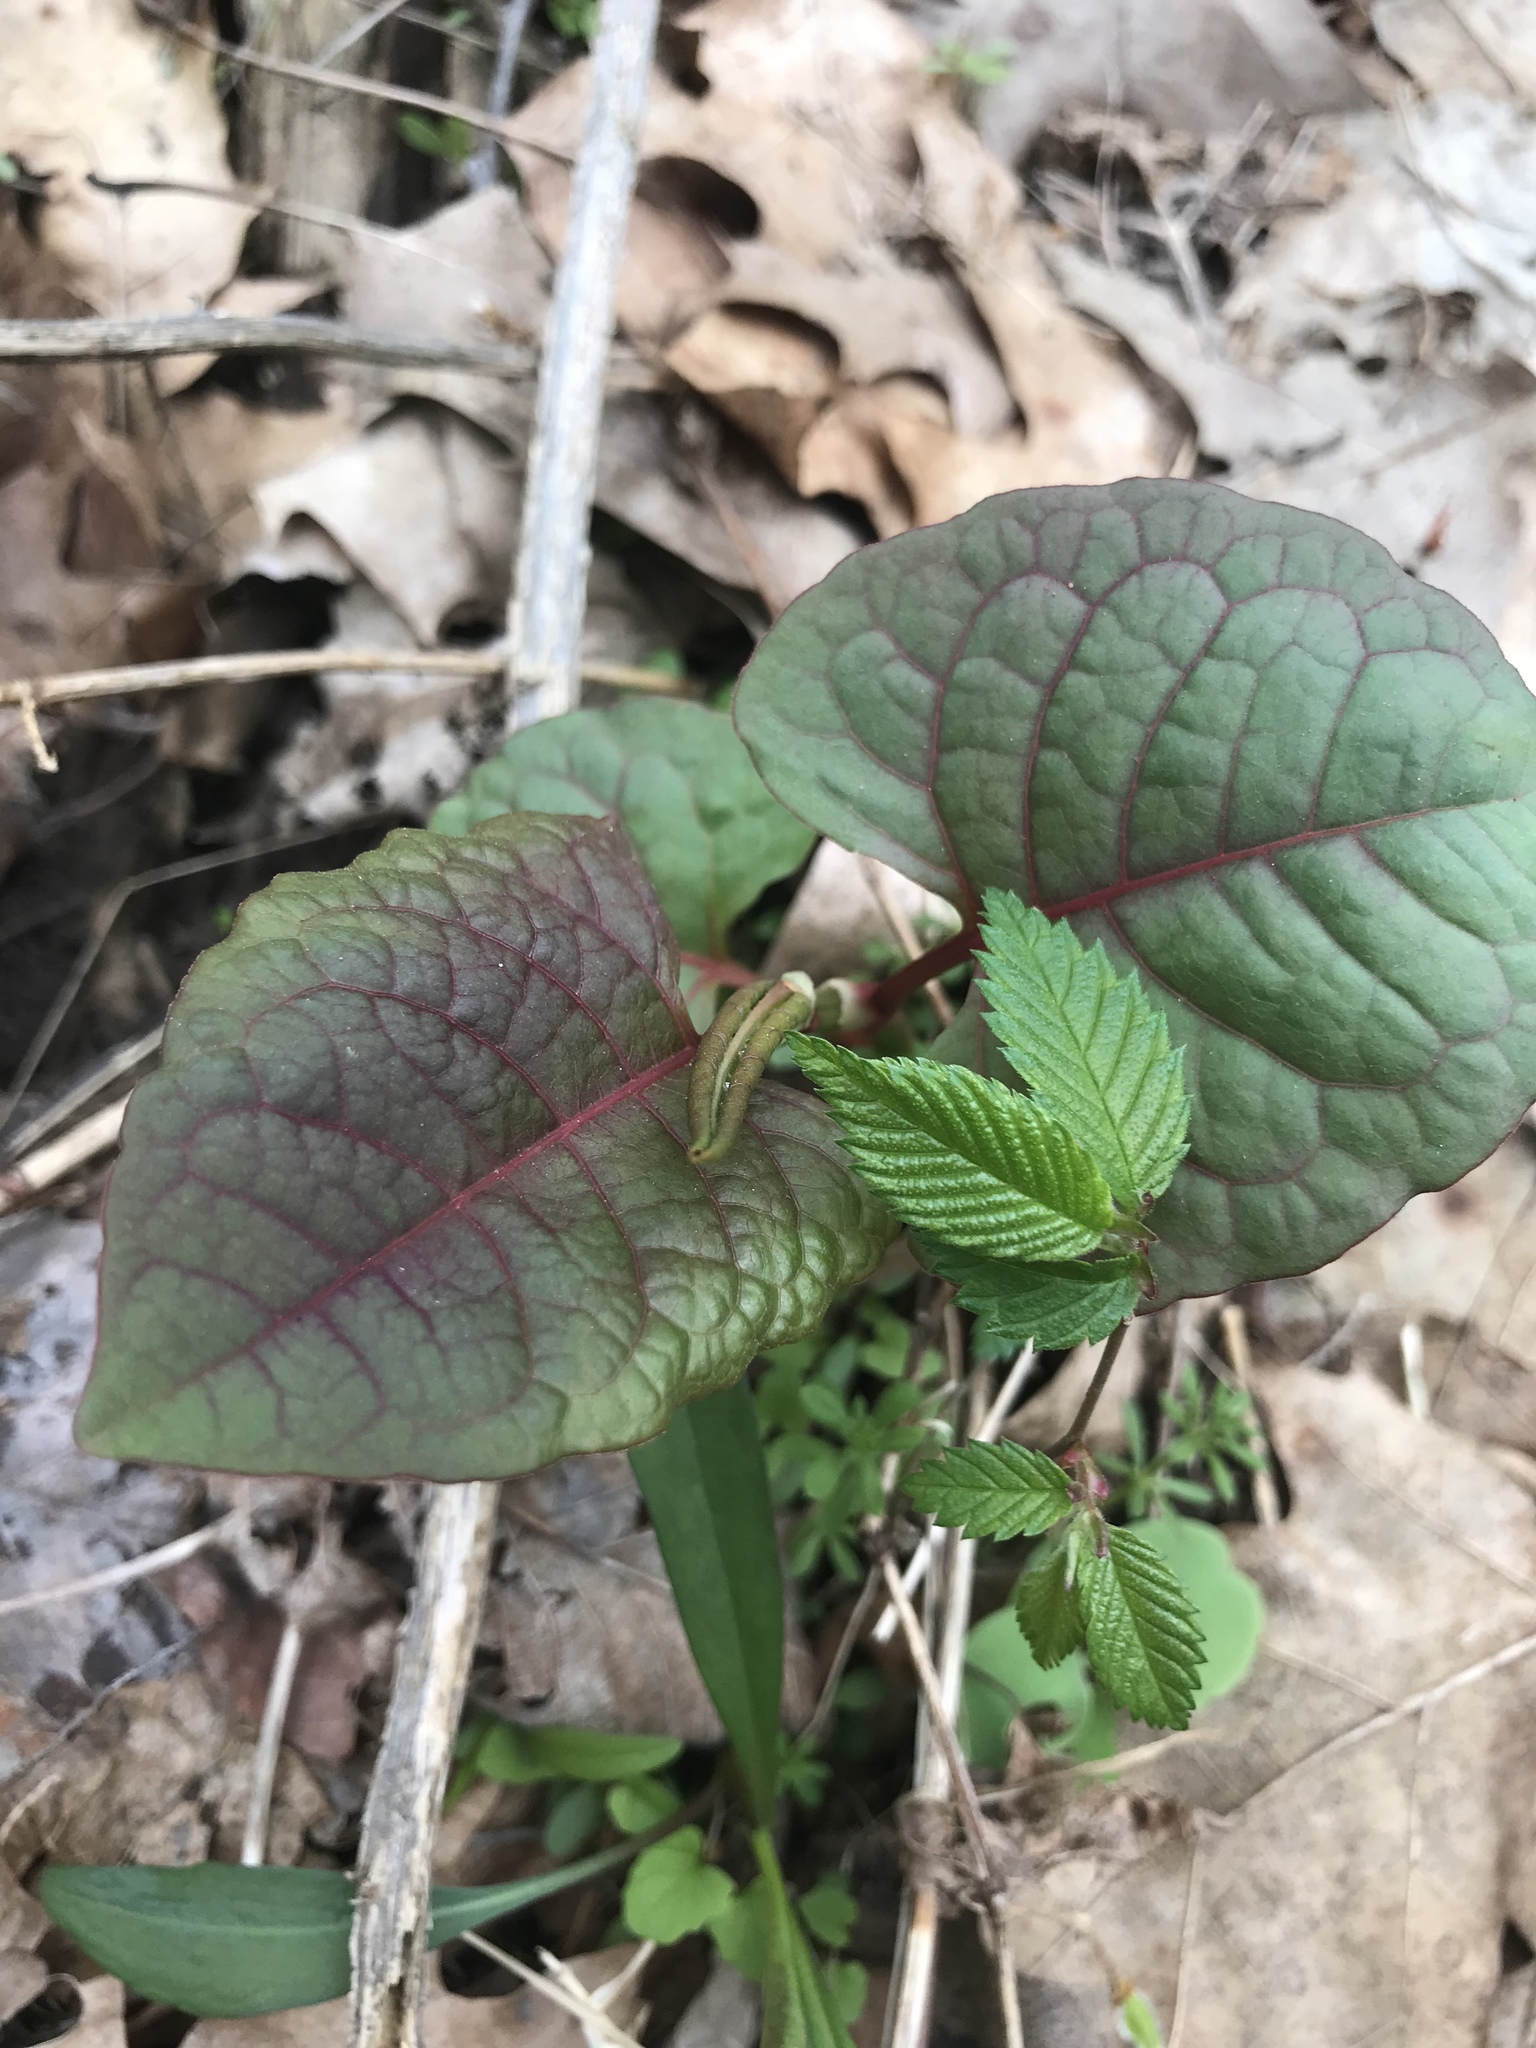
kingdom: Plantae
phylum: Tracheophyta
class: Magnoliopsida
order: Caryophyllales
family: Polygonaceae
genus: Reynoutria
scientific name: Reynoutria japonica
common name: Japanese knotweed
